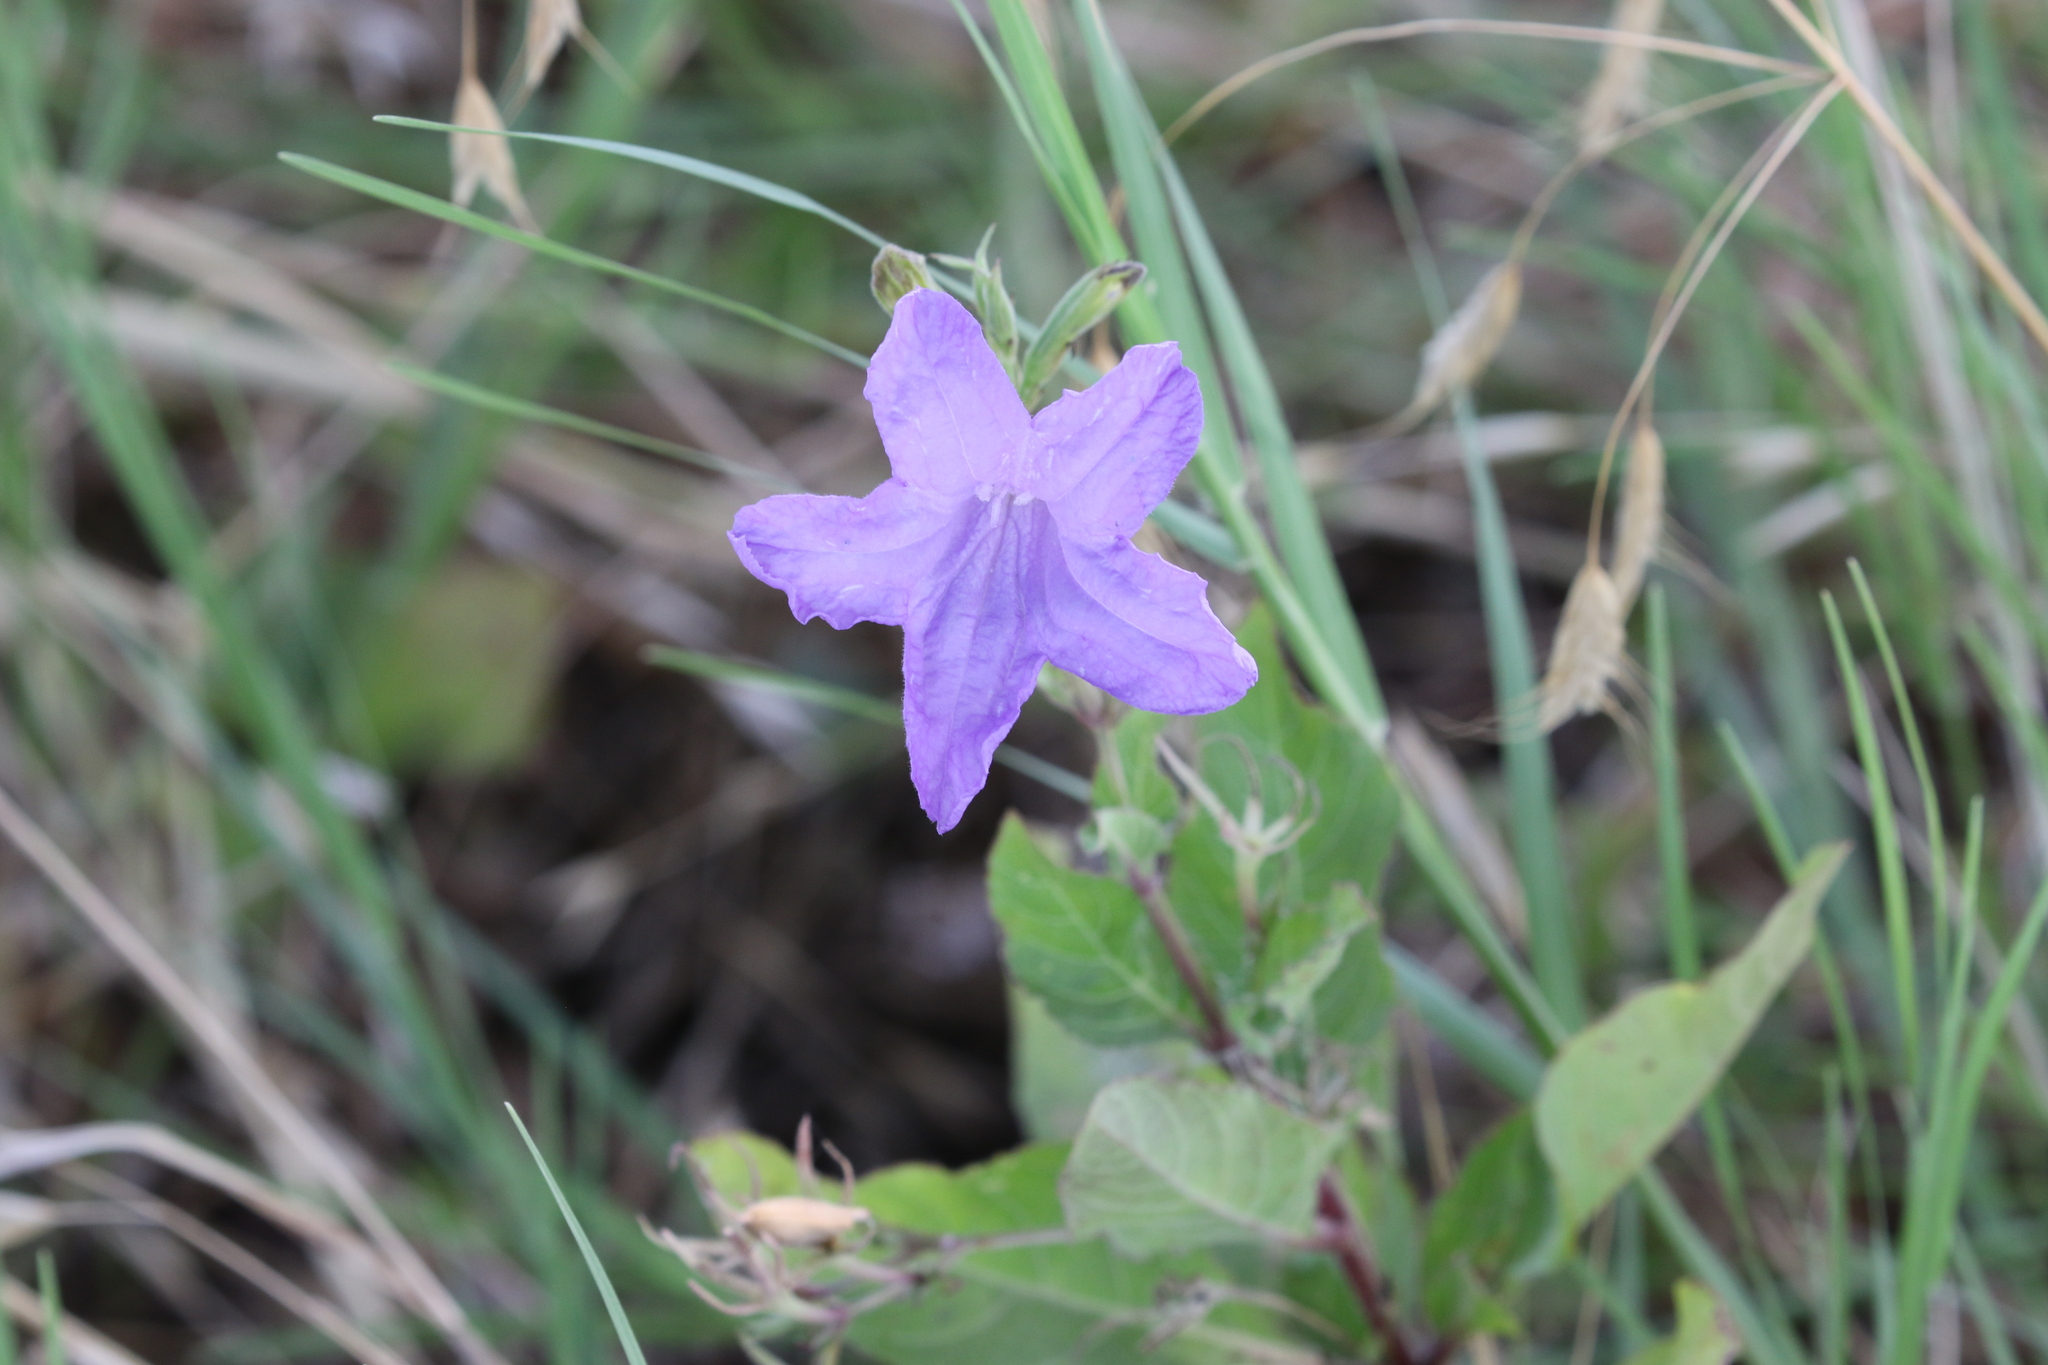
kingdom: Plantae
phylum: Tracheophyta
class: Magnoliopsida
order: Lamiales
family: Acanthaceae
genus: Ruellia
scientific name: Ruellia ciliatiflora
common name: Hairyflower wild petunia
